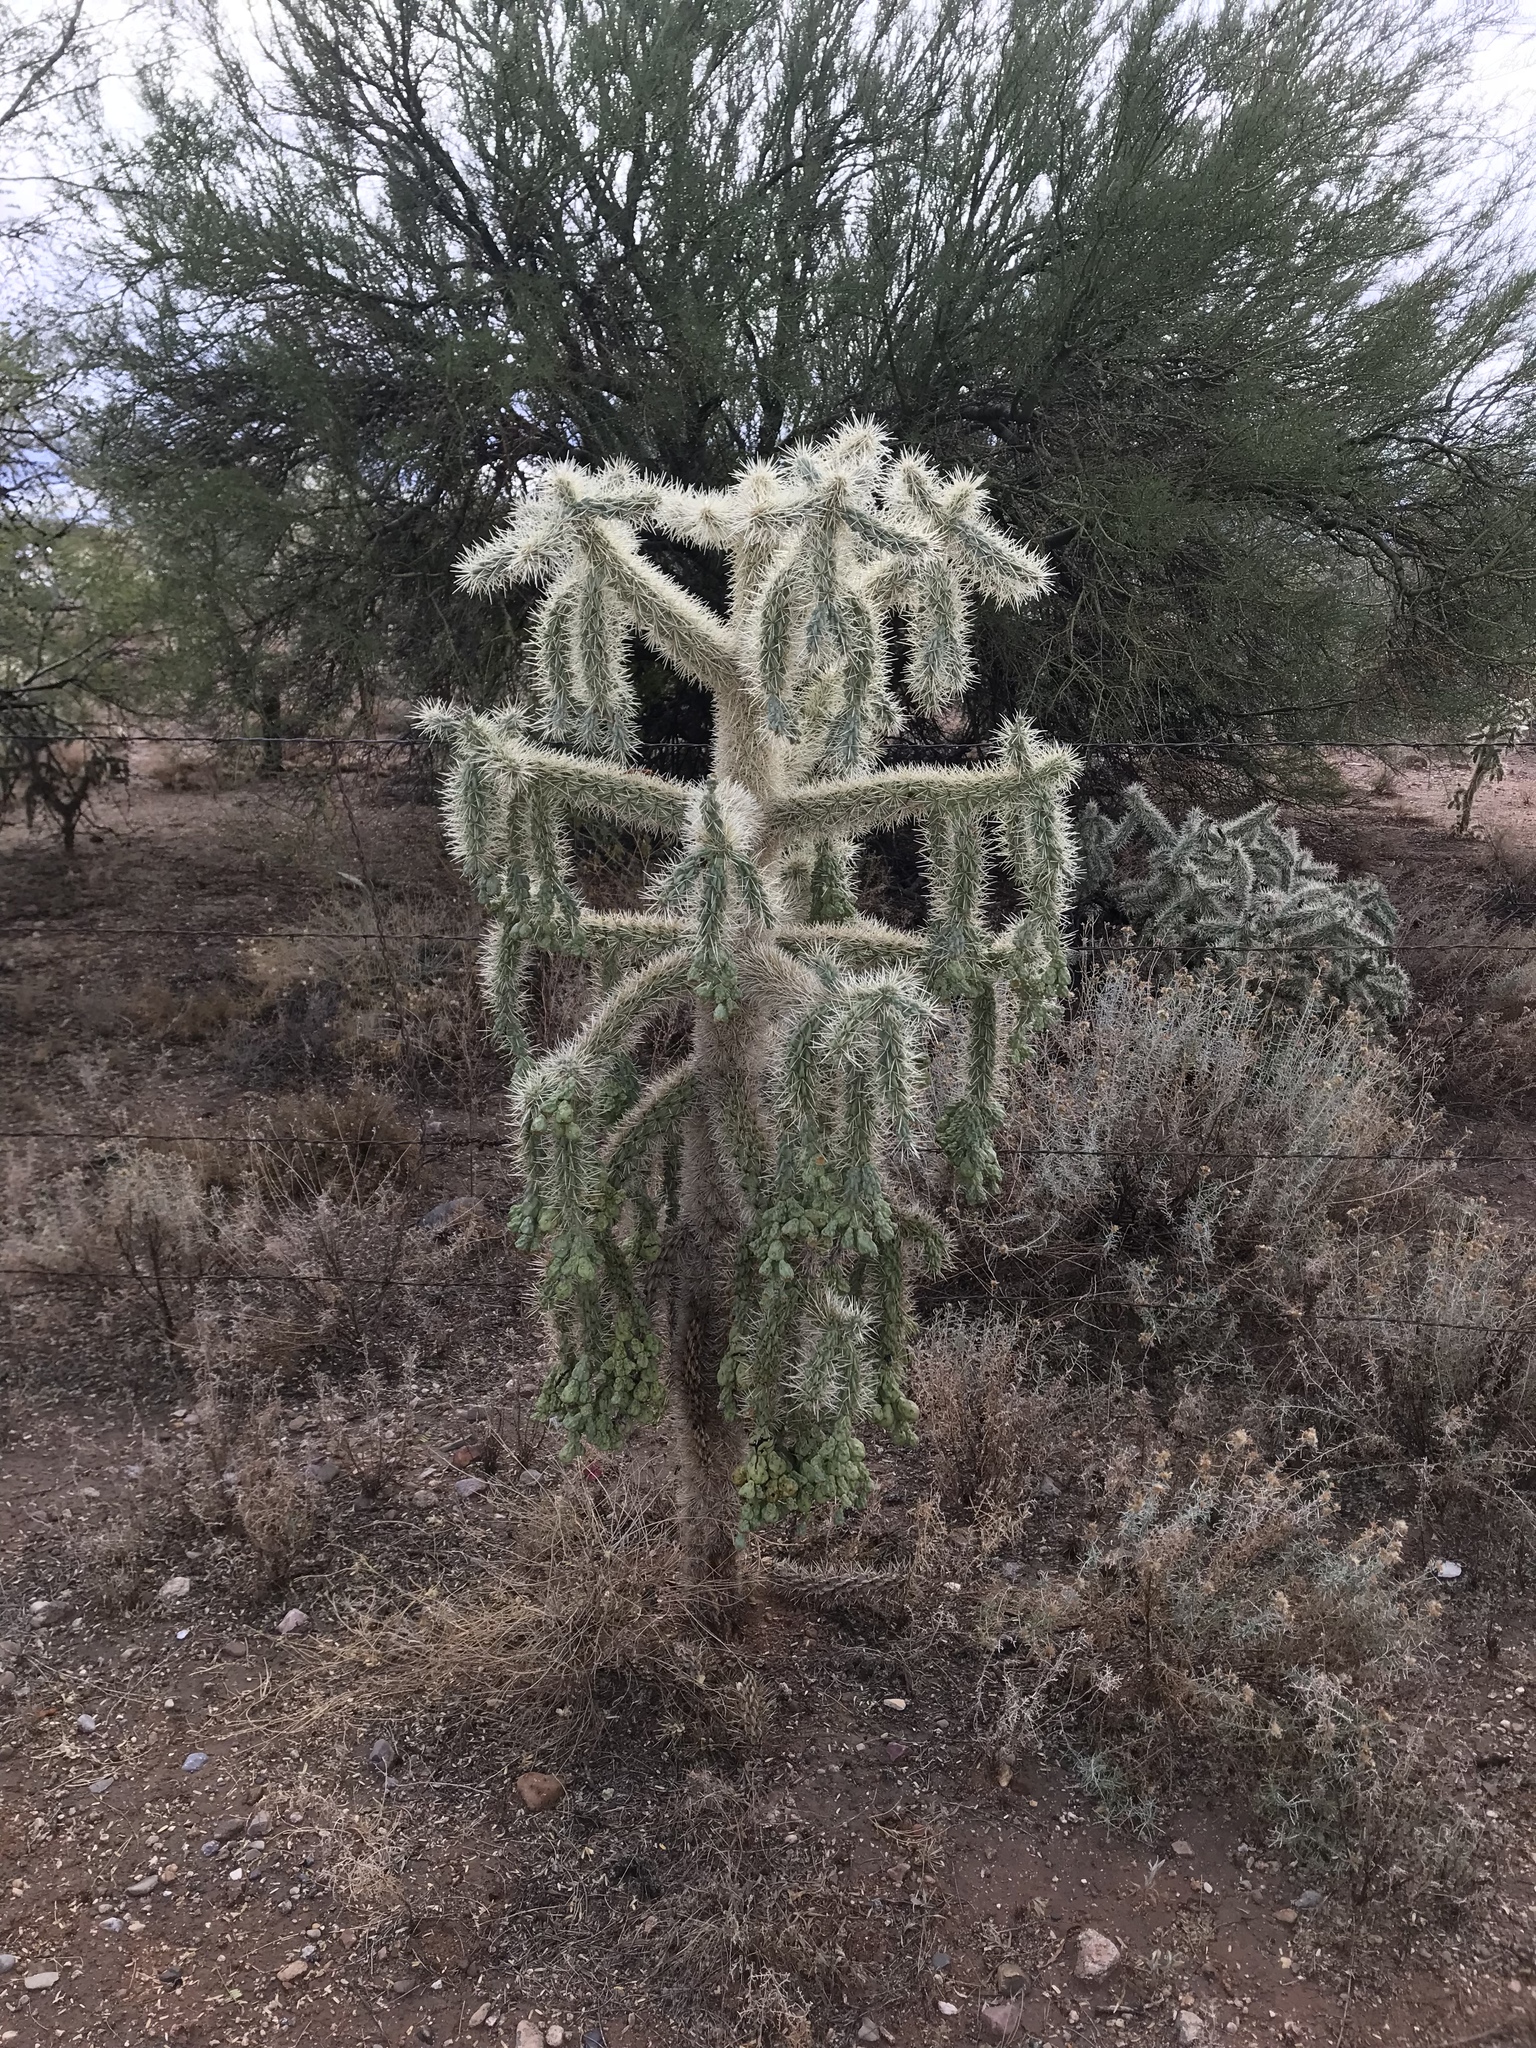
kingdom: Plantae
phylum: Tracheophyta
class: Magnoliopsida
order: Caryophyllales
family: Cactaceae
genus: Cylindropuntia
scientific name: Cylindropuntia fulgida
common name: Jumping cholla
